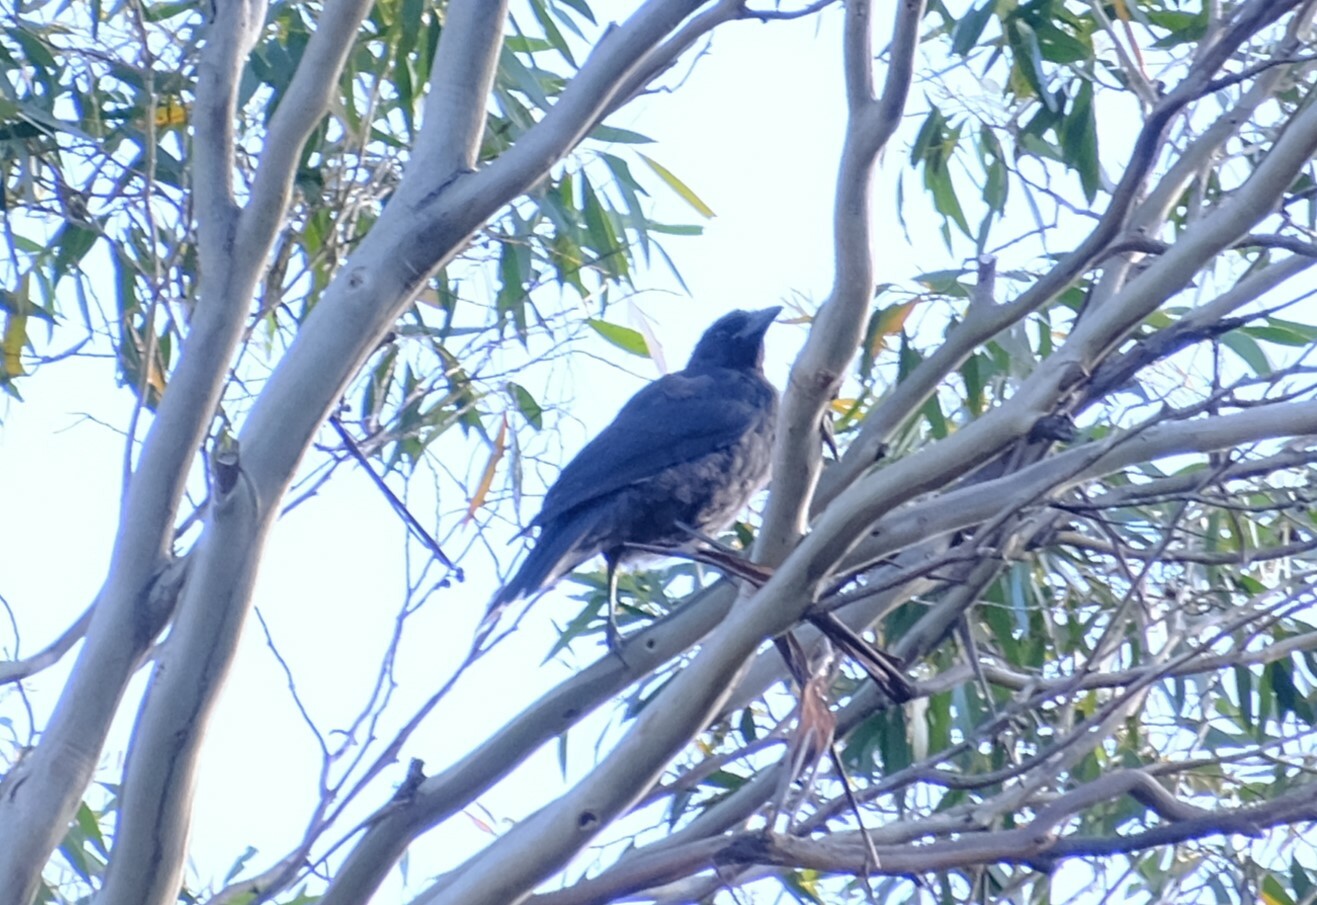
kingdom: Animalia
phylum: Chordata
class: Aves
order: Passeriformes
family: Cracticidae
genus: Strepera
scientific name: Strepera fuliginosa
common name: Black currawong
